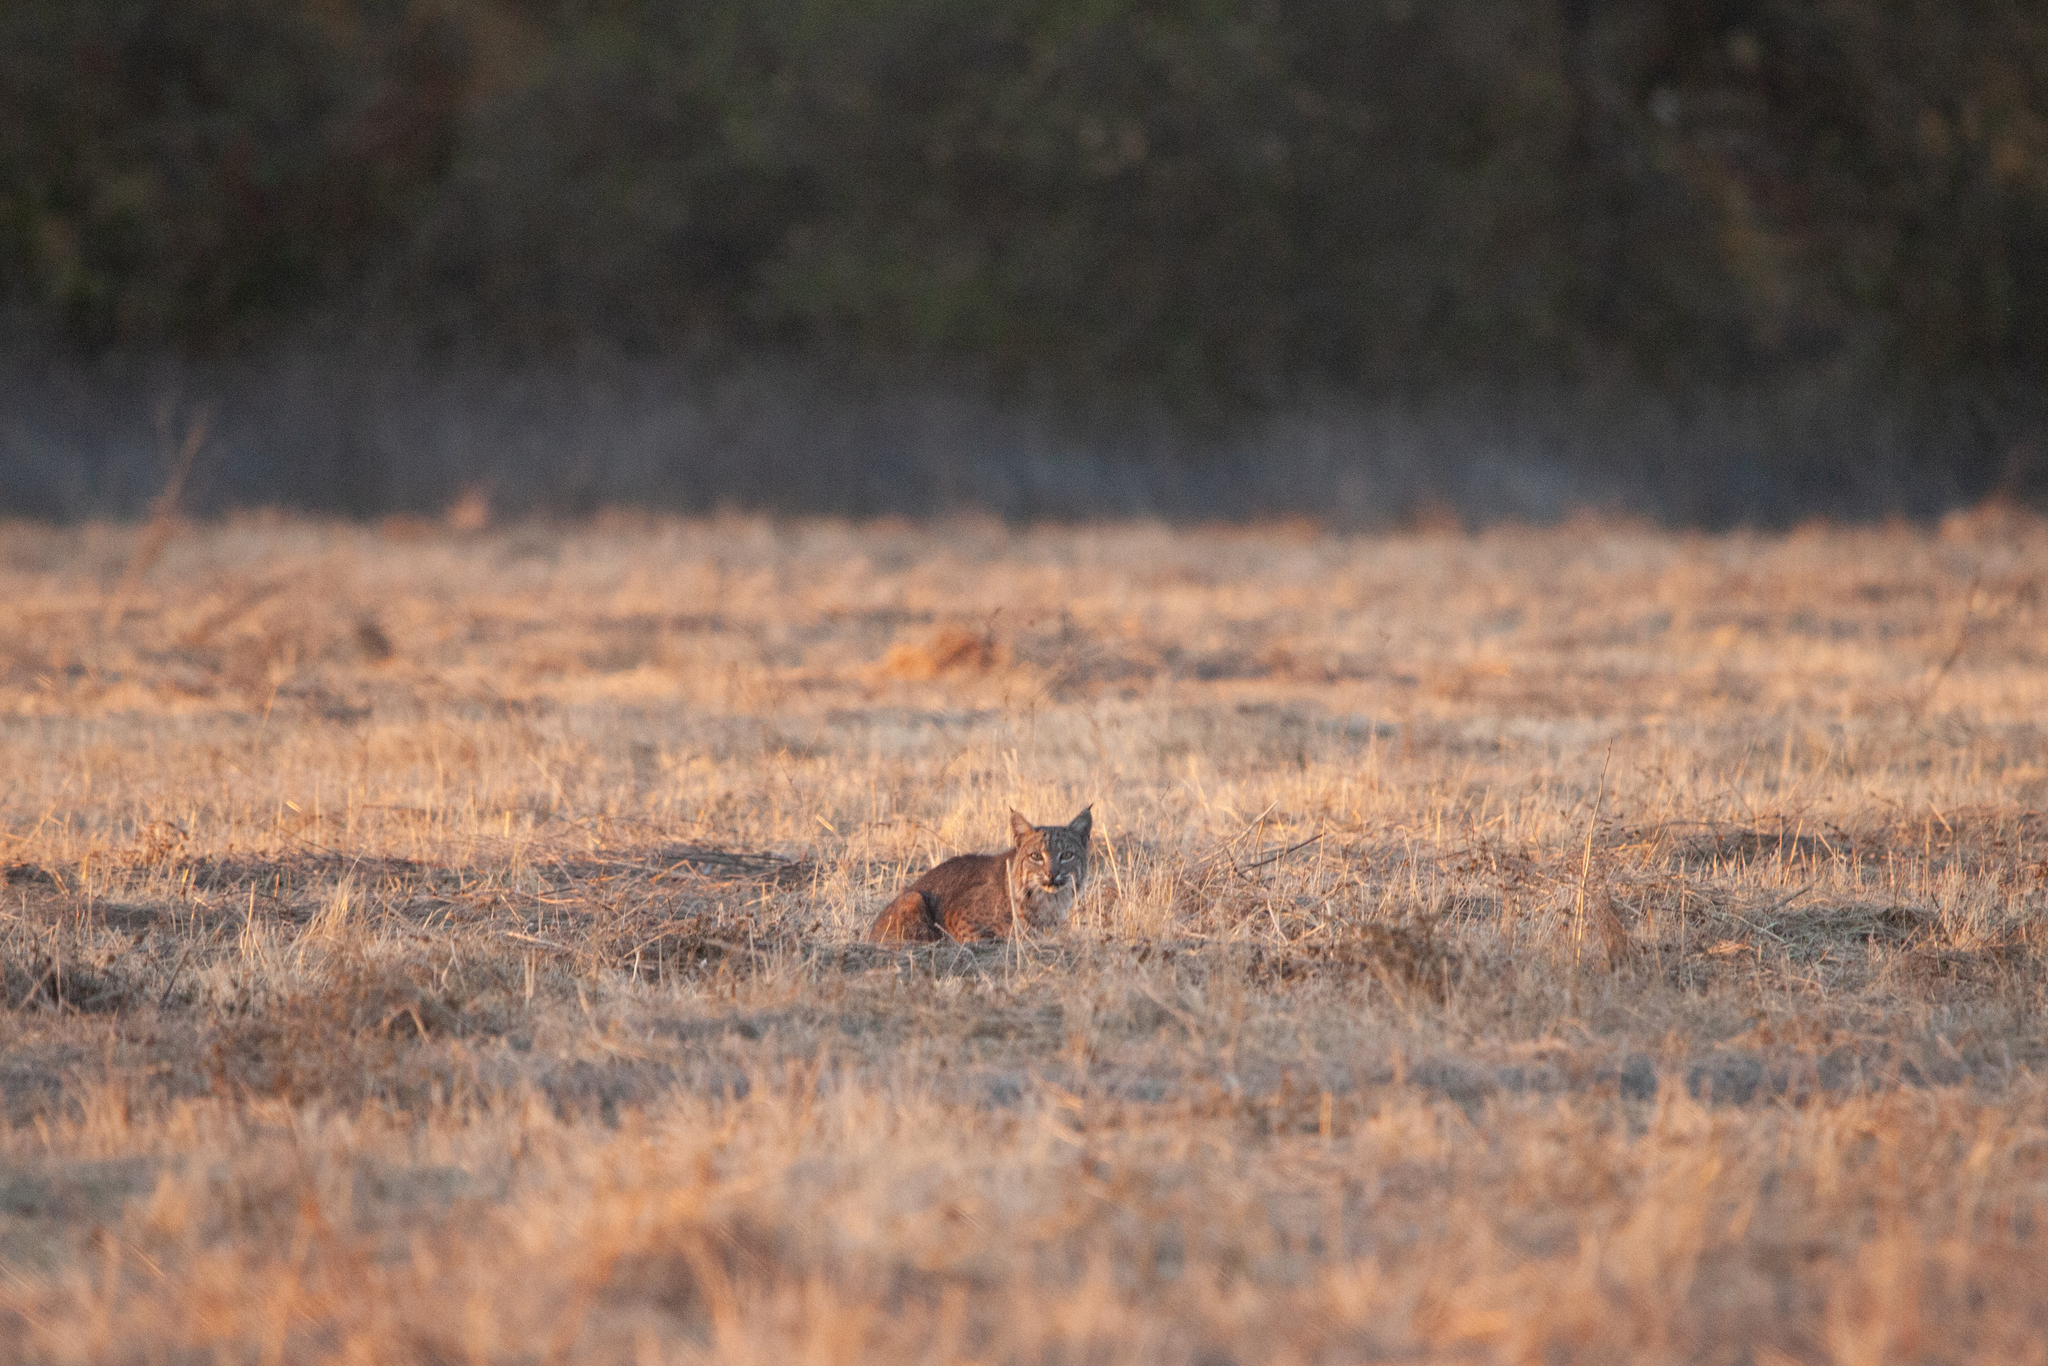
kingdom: Animalia
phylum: Chordata
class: Mammalia
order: Carnivora
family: Felidae
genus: Lynx
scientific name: Lynx rufus
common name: Bobcat
